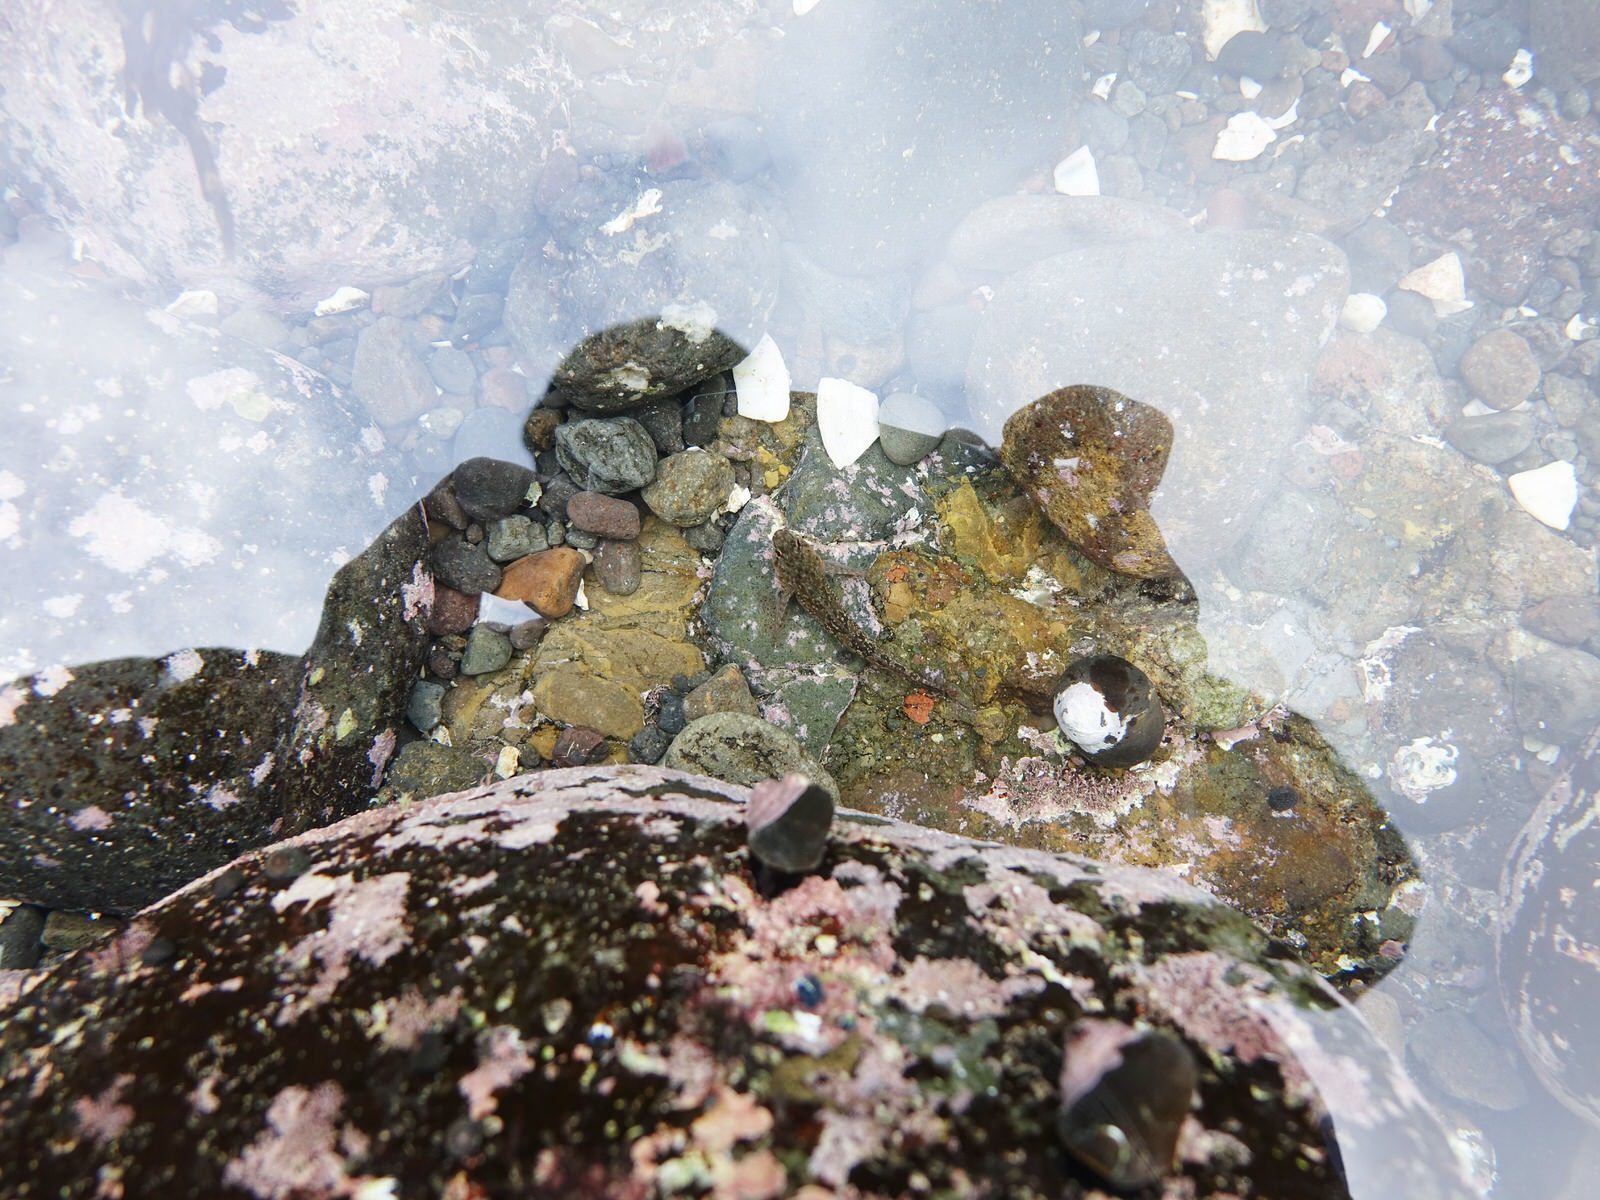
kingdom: Animalia
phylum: Chordata
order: Perciformes
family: Tripterygiidae
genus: Bellapiscis
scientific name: Bellapiscis medius
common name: Twister
